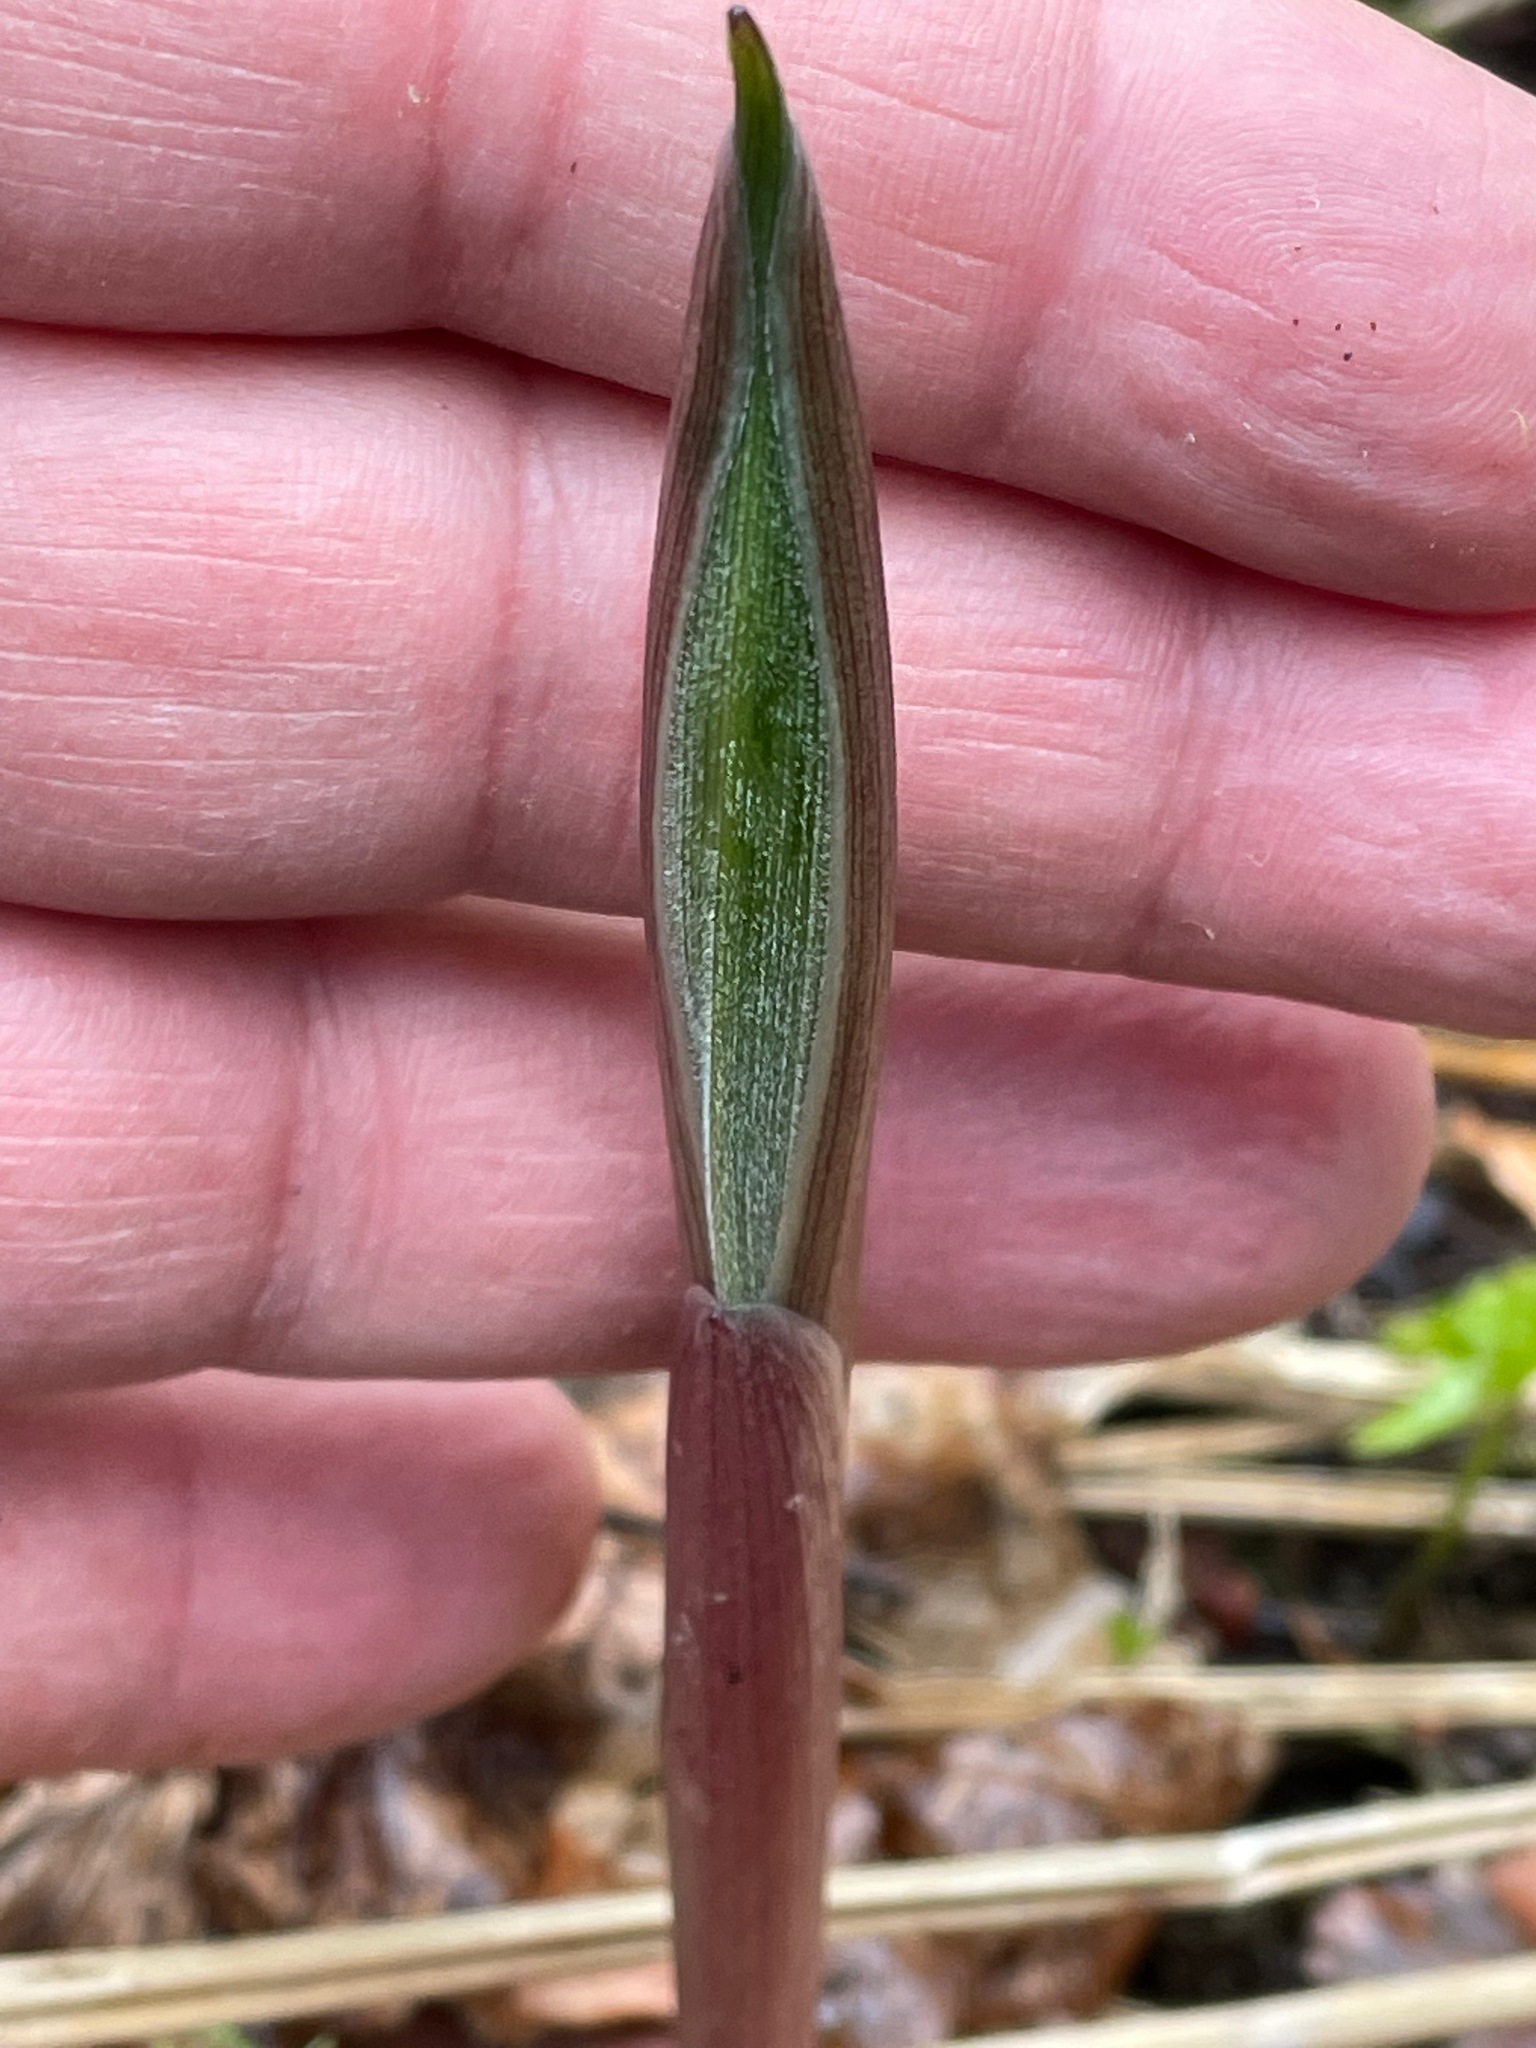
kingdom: Plantae
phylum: Tracheophyta
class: Liliopsida
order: Asparagales
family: Asparagaceae
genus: Maianthemum
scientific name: Maianthemum racemosum
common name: False spikenard
